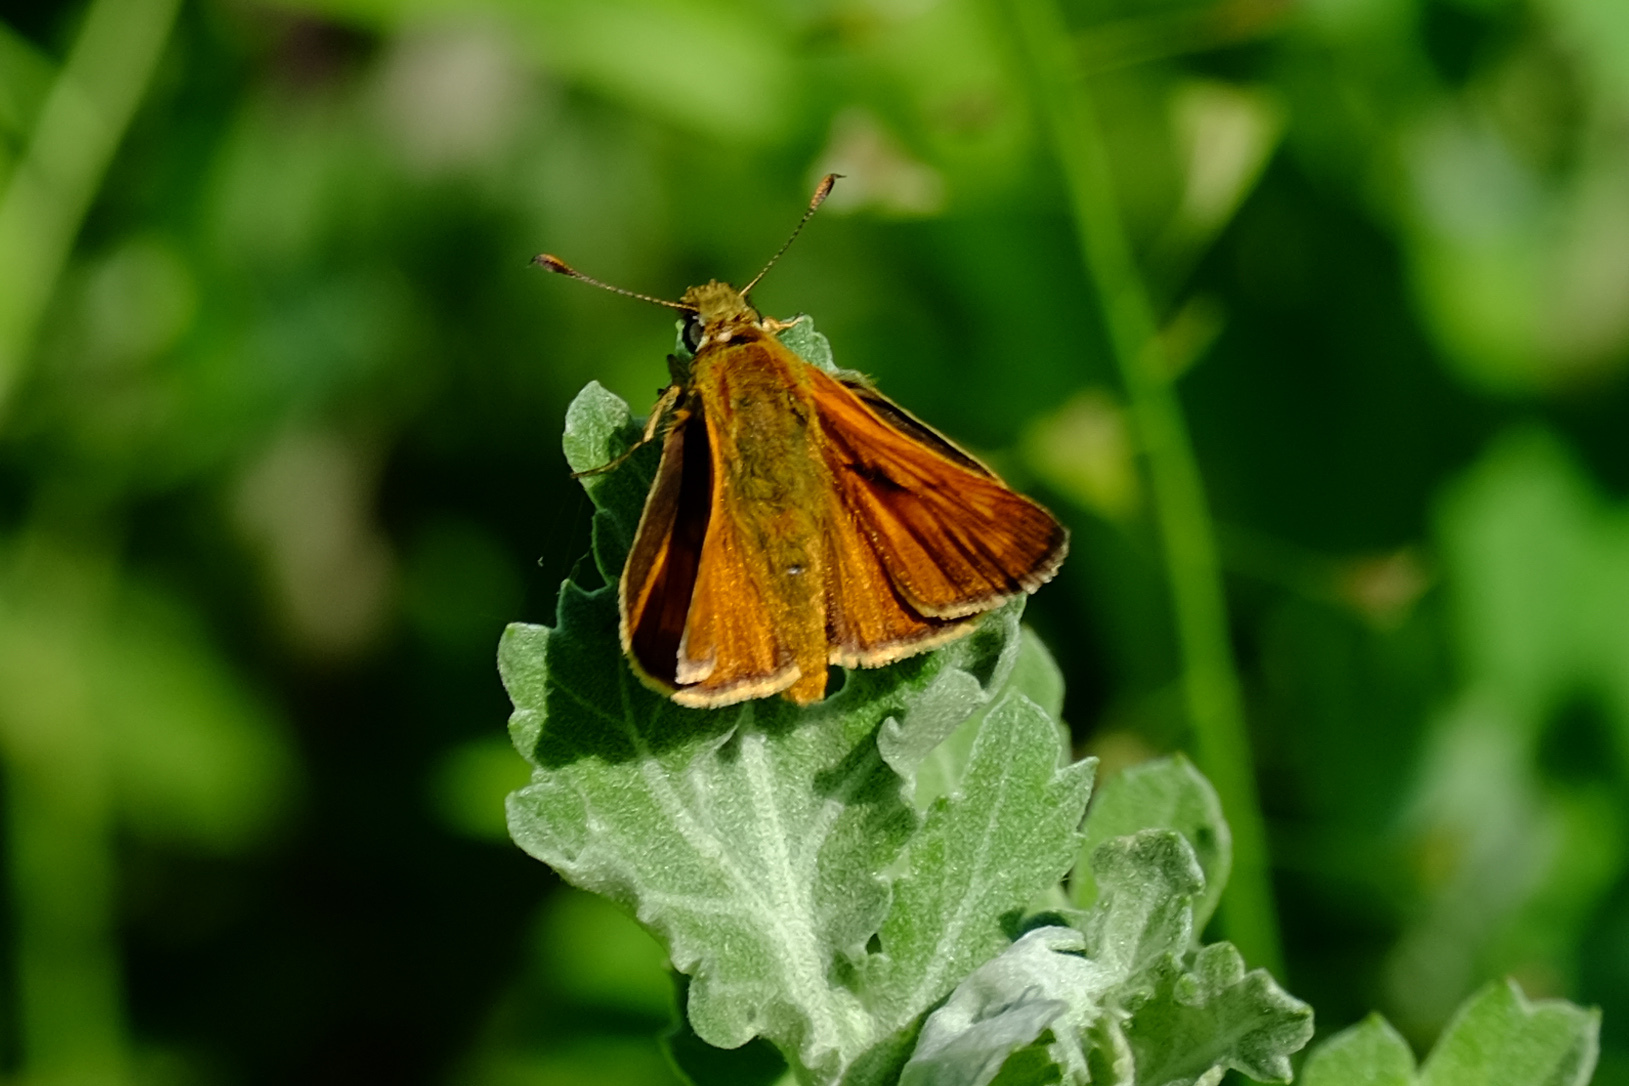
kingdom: Animalia
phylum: Arthropoda
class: Insecta
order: Lepidoptera
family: Hesperiidae
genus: Ochlodes
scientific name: Ochlodes venata
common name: Large skipper
